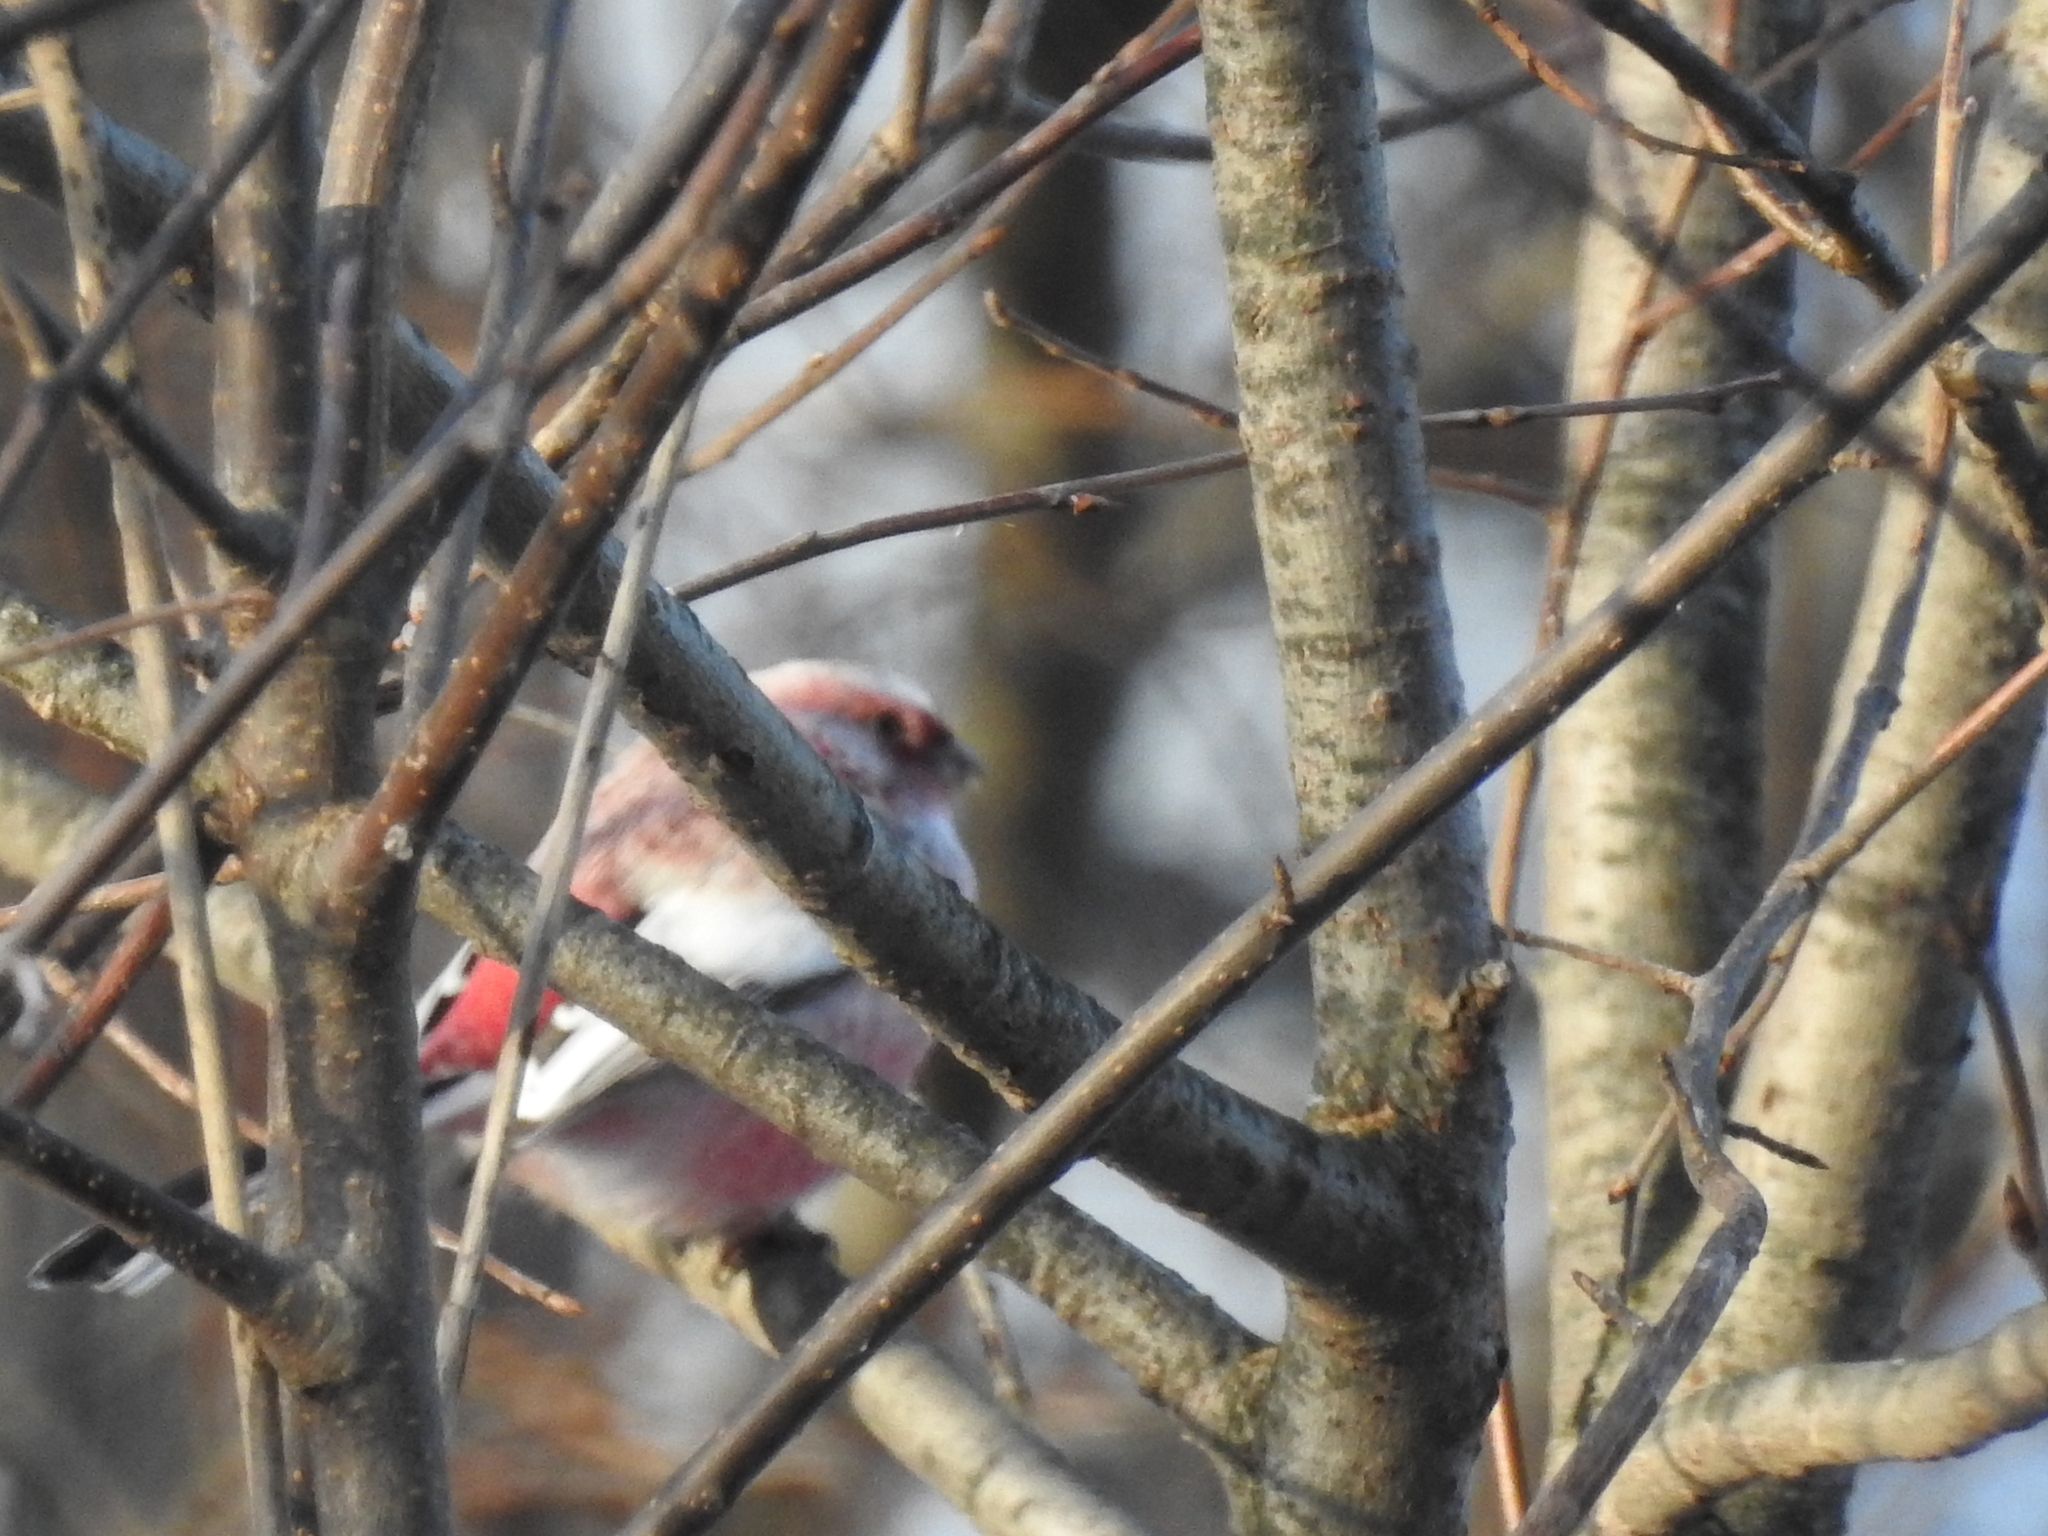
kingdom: Animalia
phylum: Chordata
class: Aves
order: Passeriformes
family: Fringillidae
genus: Carpodacus
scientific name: Carpodacus sibiricus
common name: Long-tailed rosefinch
